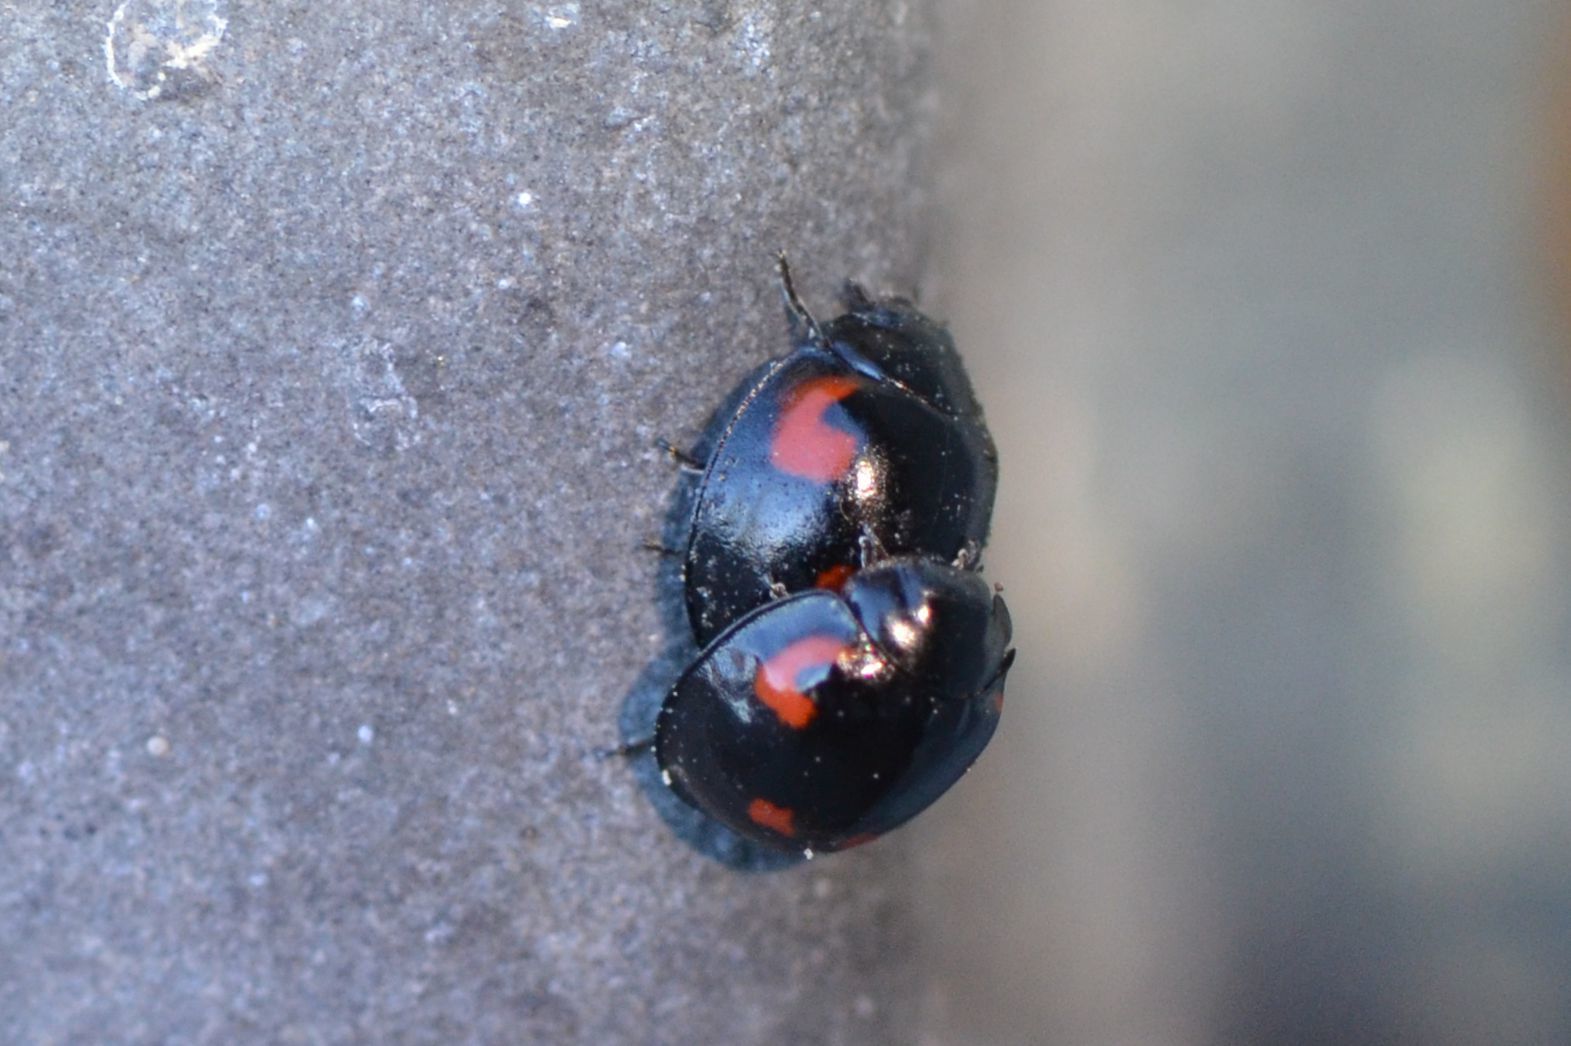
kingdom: Animalia
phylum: Arthropoda
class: Insecta
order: Coleoptera
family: Coccinellidae
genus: Brumus
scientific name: Brumus quadripustulatus
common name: Ladybird beetle
